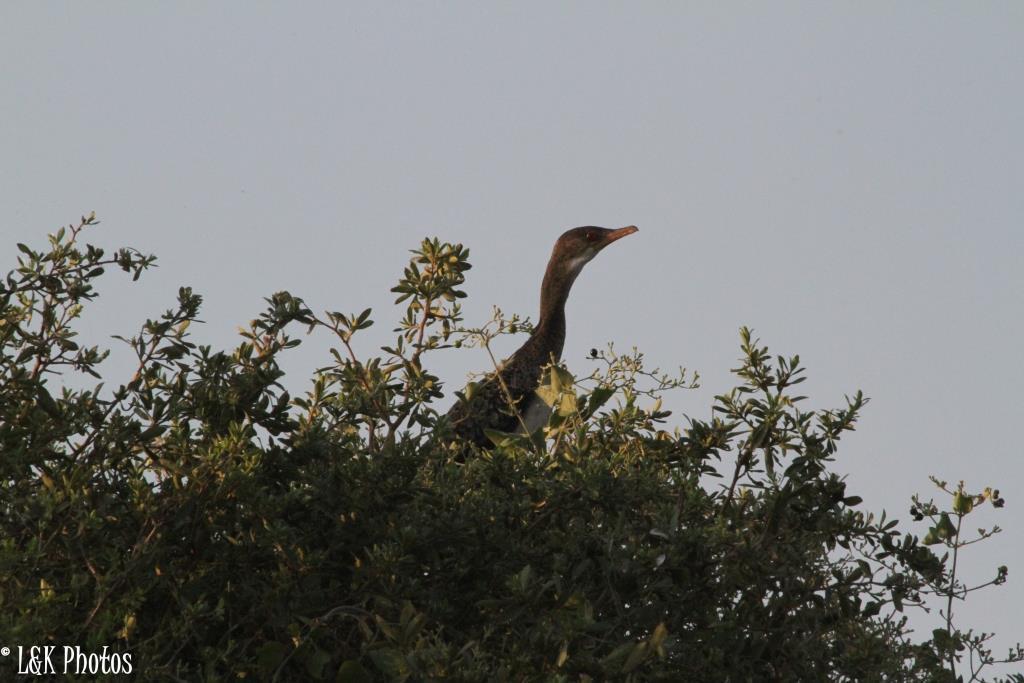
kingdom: Animalia
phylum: Chordata
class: Aves
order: Suliformes
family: Phalacrocoracidae
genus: Microcarbo
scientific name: Microcarbo africanus
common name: Long-tailed cormorant
